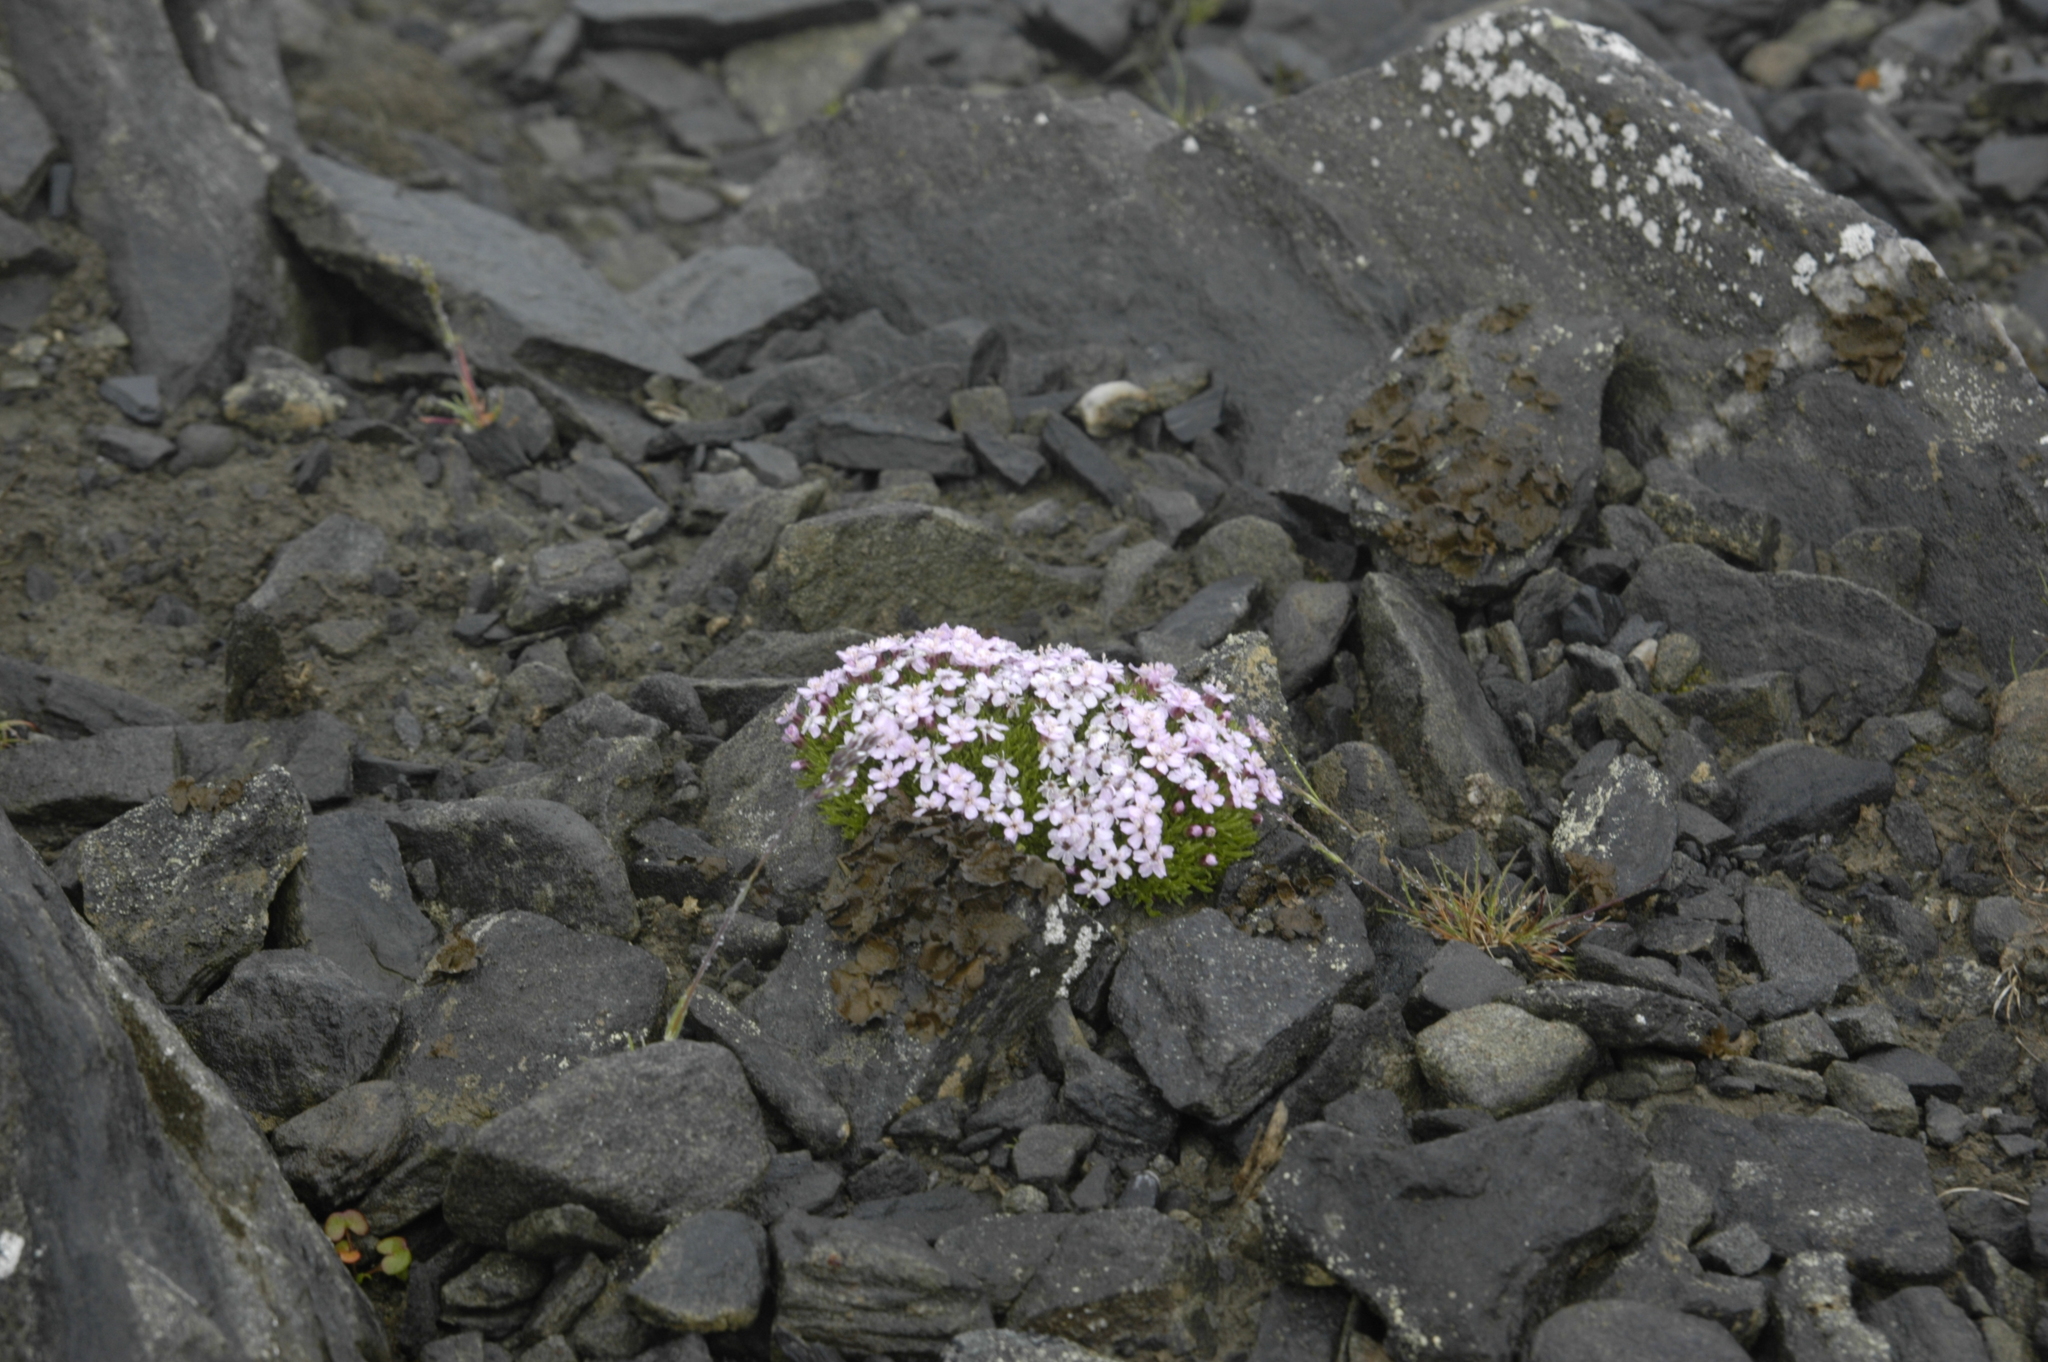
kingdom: Plantae
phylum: Tracheophyta
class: Magnoliopsida
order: Caryophyllales
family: Caryophyllaceae
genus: Silene
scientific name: Silene acaulis
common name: Moss campion
